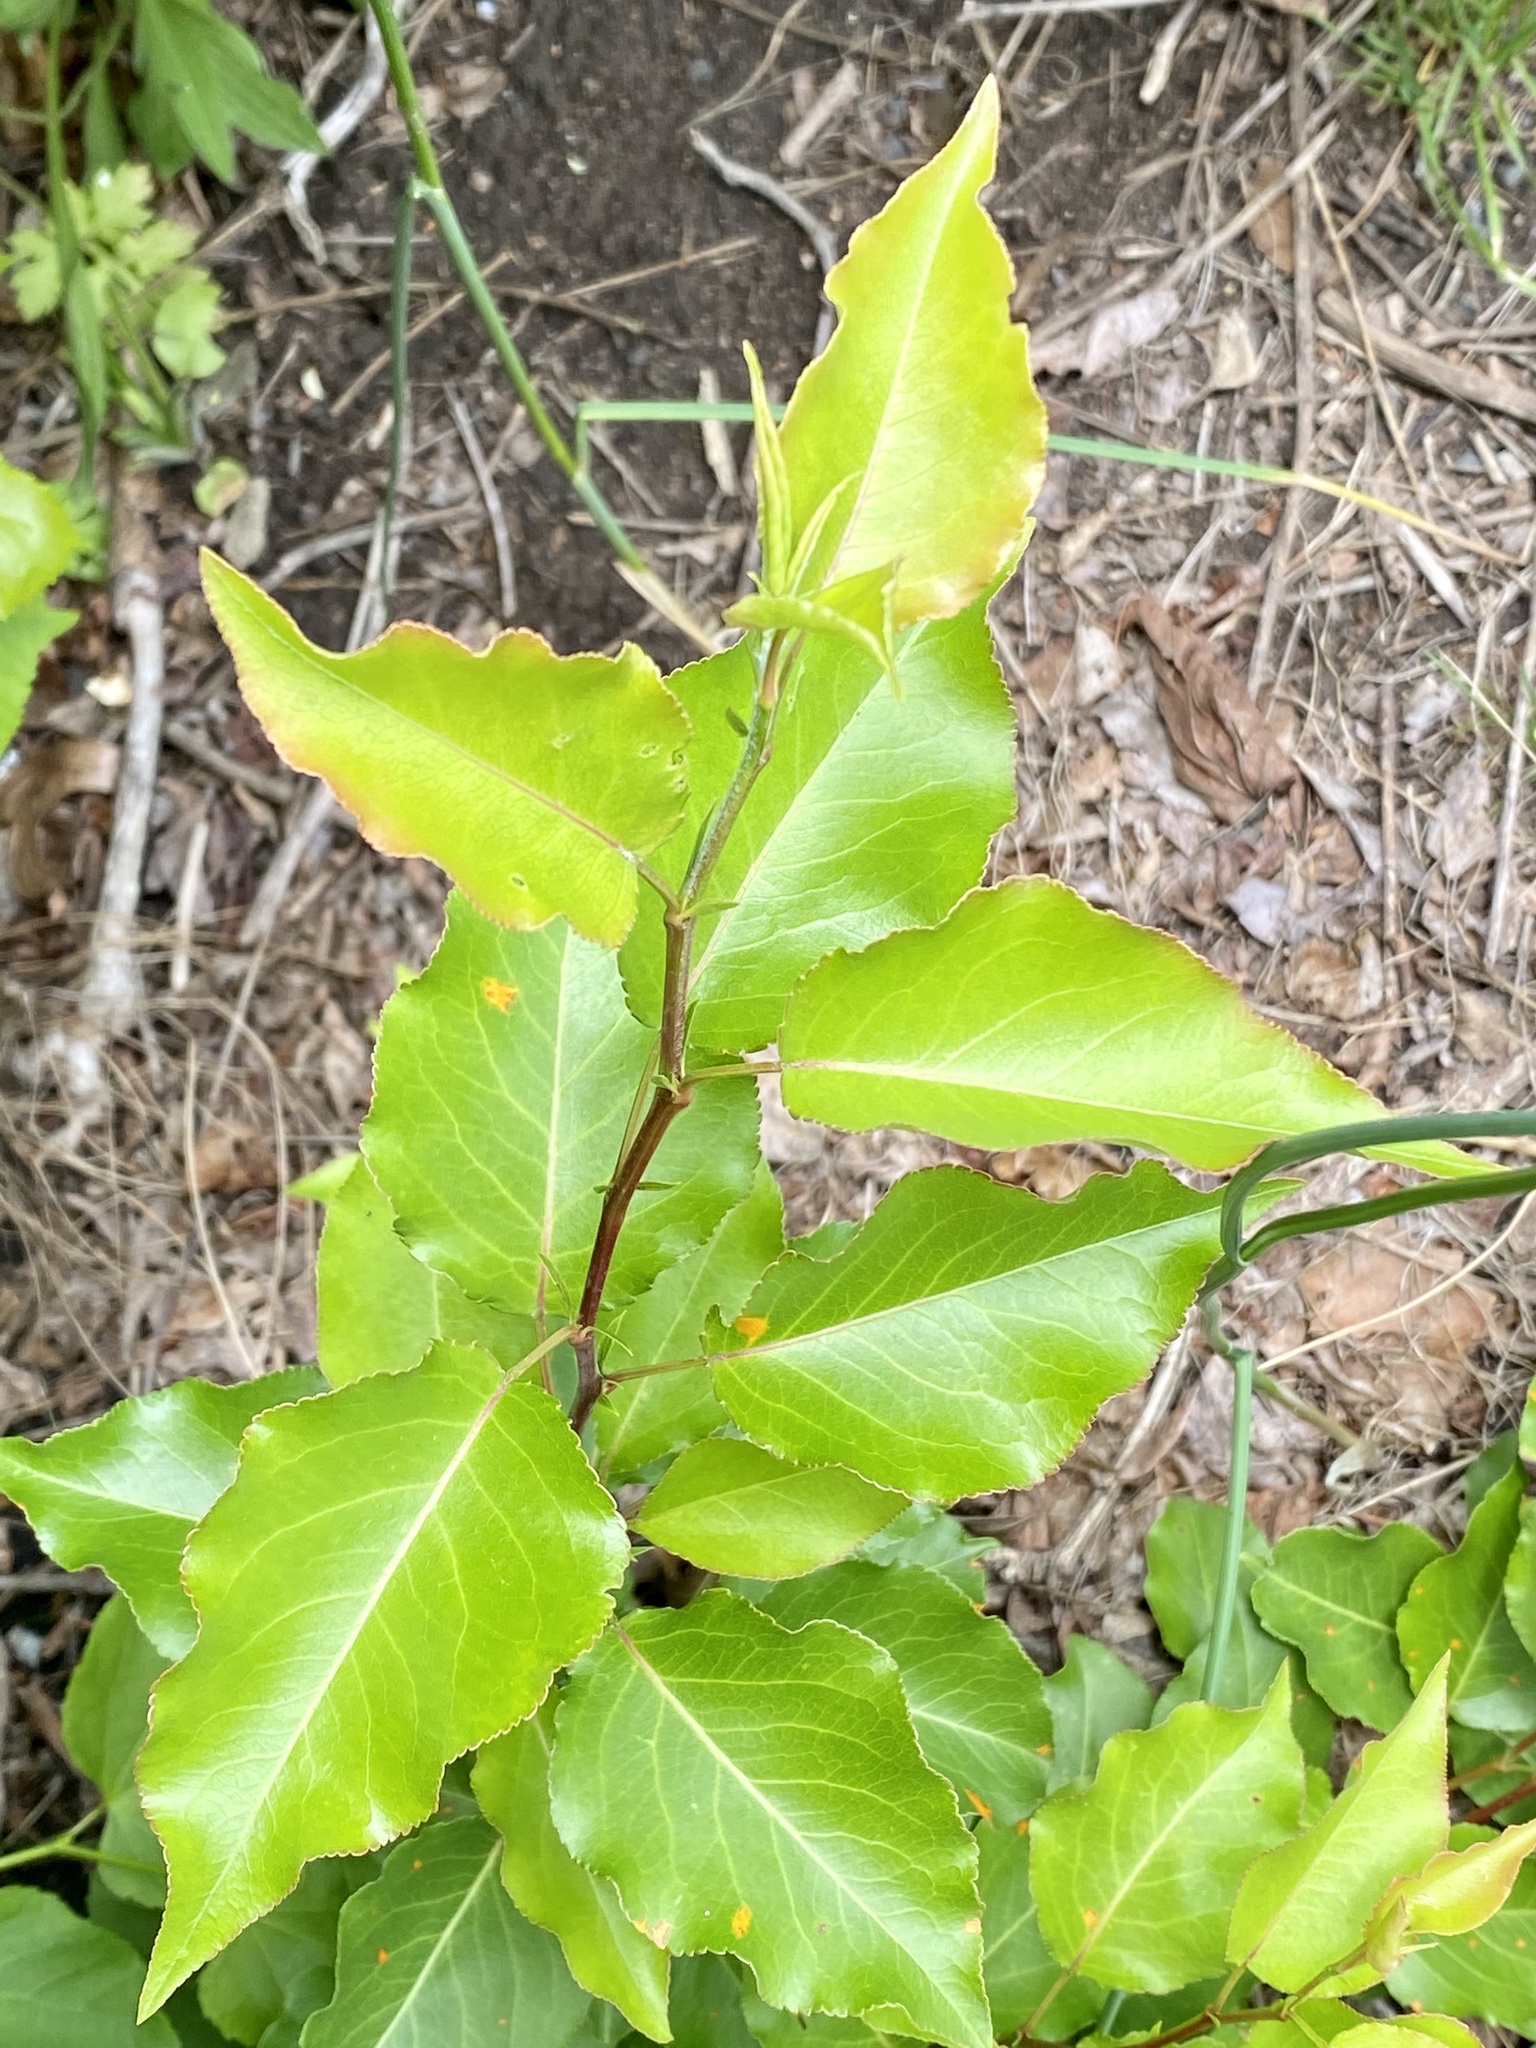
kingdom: Plantae
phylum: Tracheophyta
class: Magnoliopsida
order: Rosales
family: Rosaceae
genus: Pyrus
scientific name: Pyrus calleryana
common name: Callery pear
